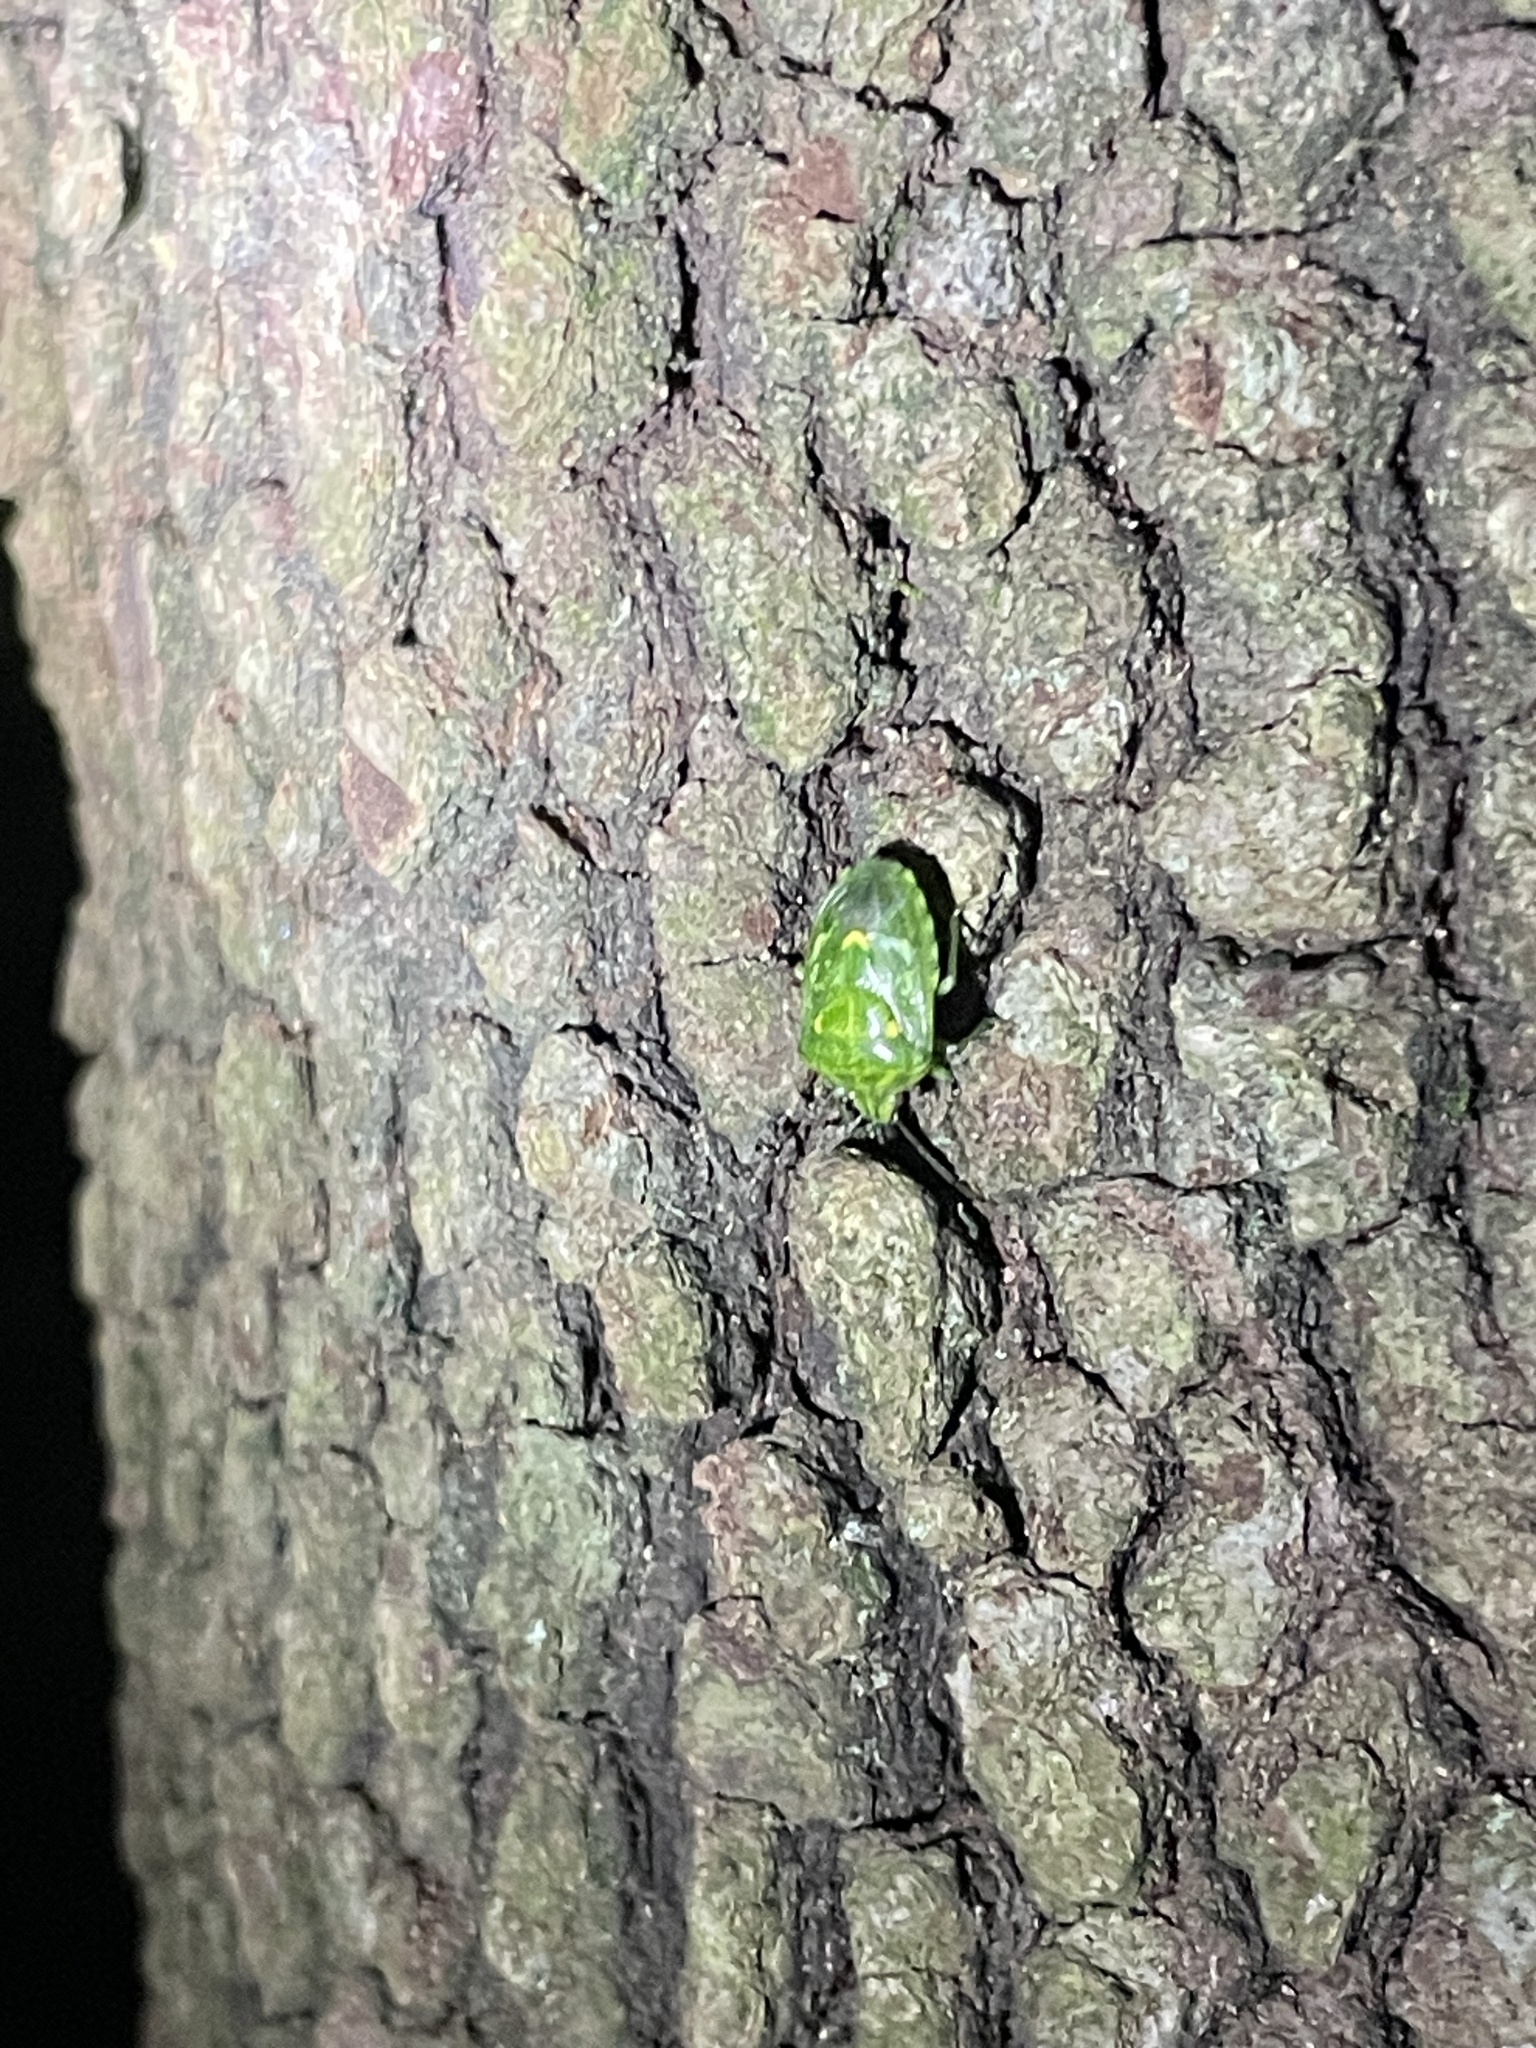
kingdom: Animalia
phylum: Arthropoda
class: Insecta
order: Hemiptera
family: Pentatomidae
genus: Banasa
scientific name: Banasa euchlora
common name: Cedar berry bug
